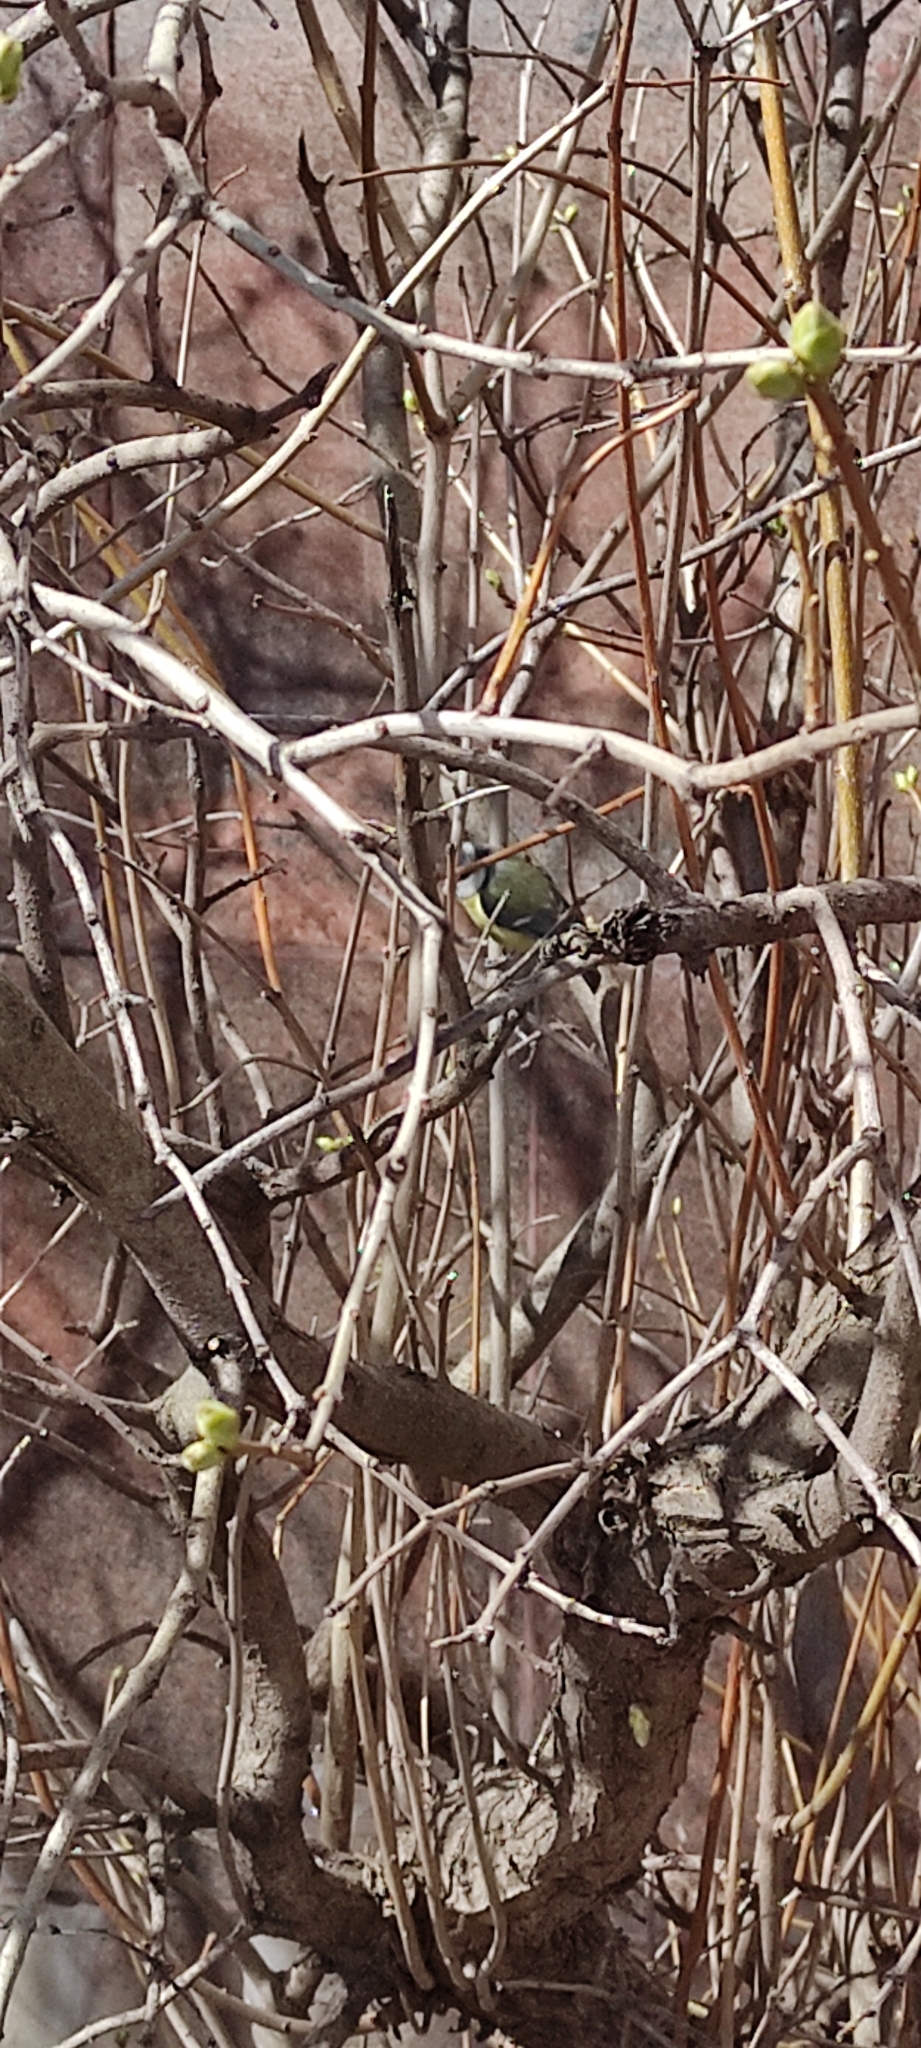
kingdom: Animalia
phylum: Chordata
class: Aves
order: Passeriformes
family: Paridae
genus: Cyanistes
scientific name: Cyanistes caeruleus
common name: Eurasian blue tit
